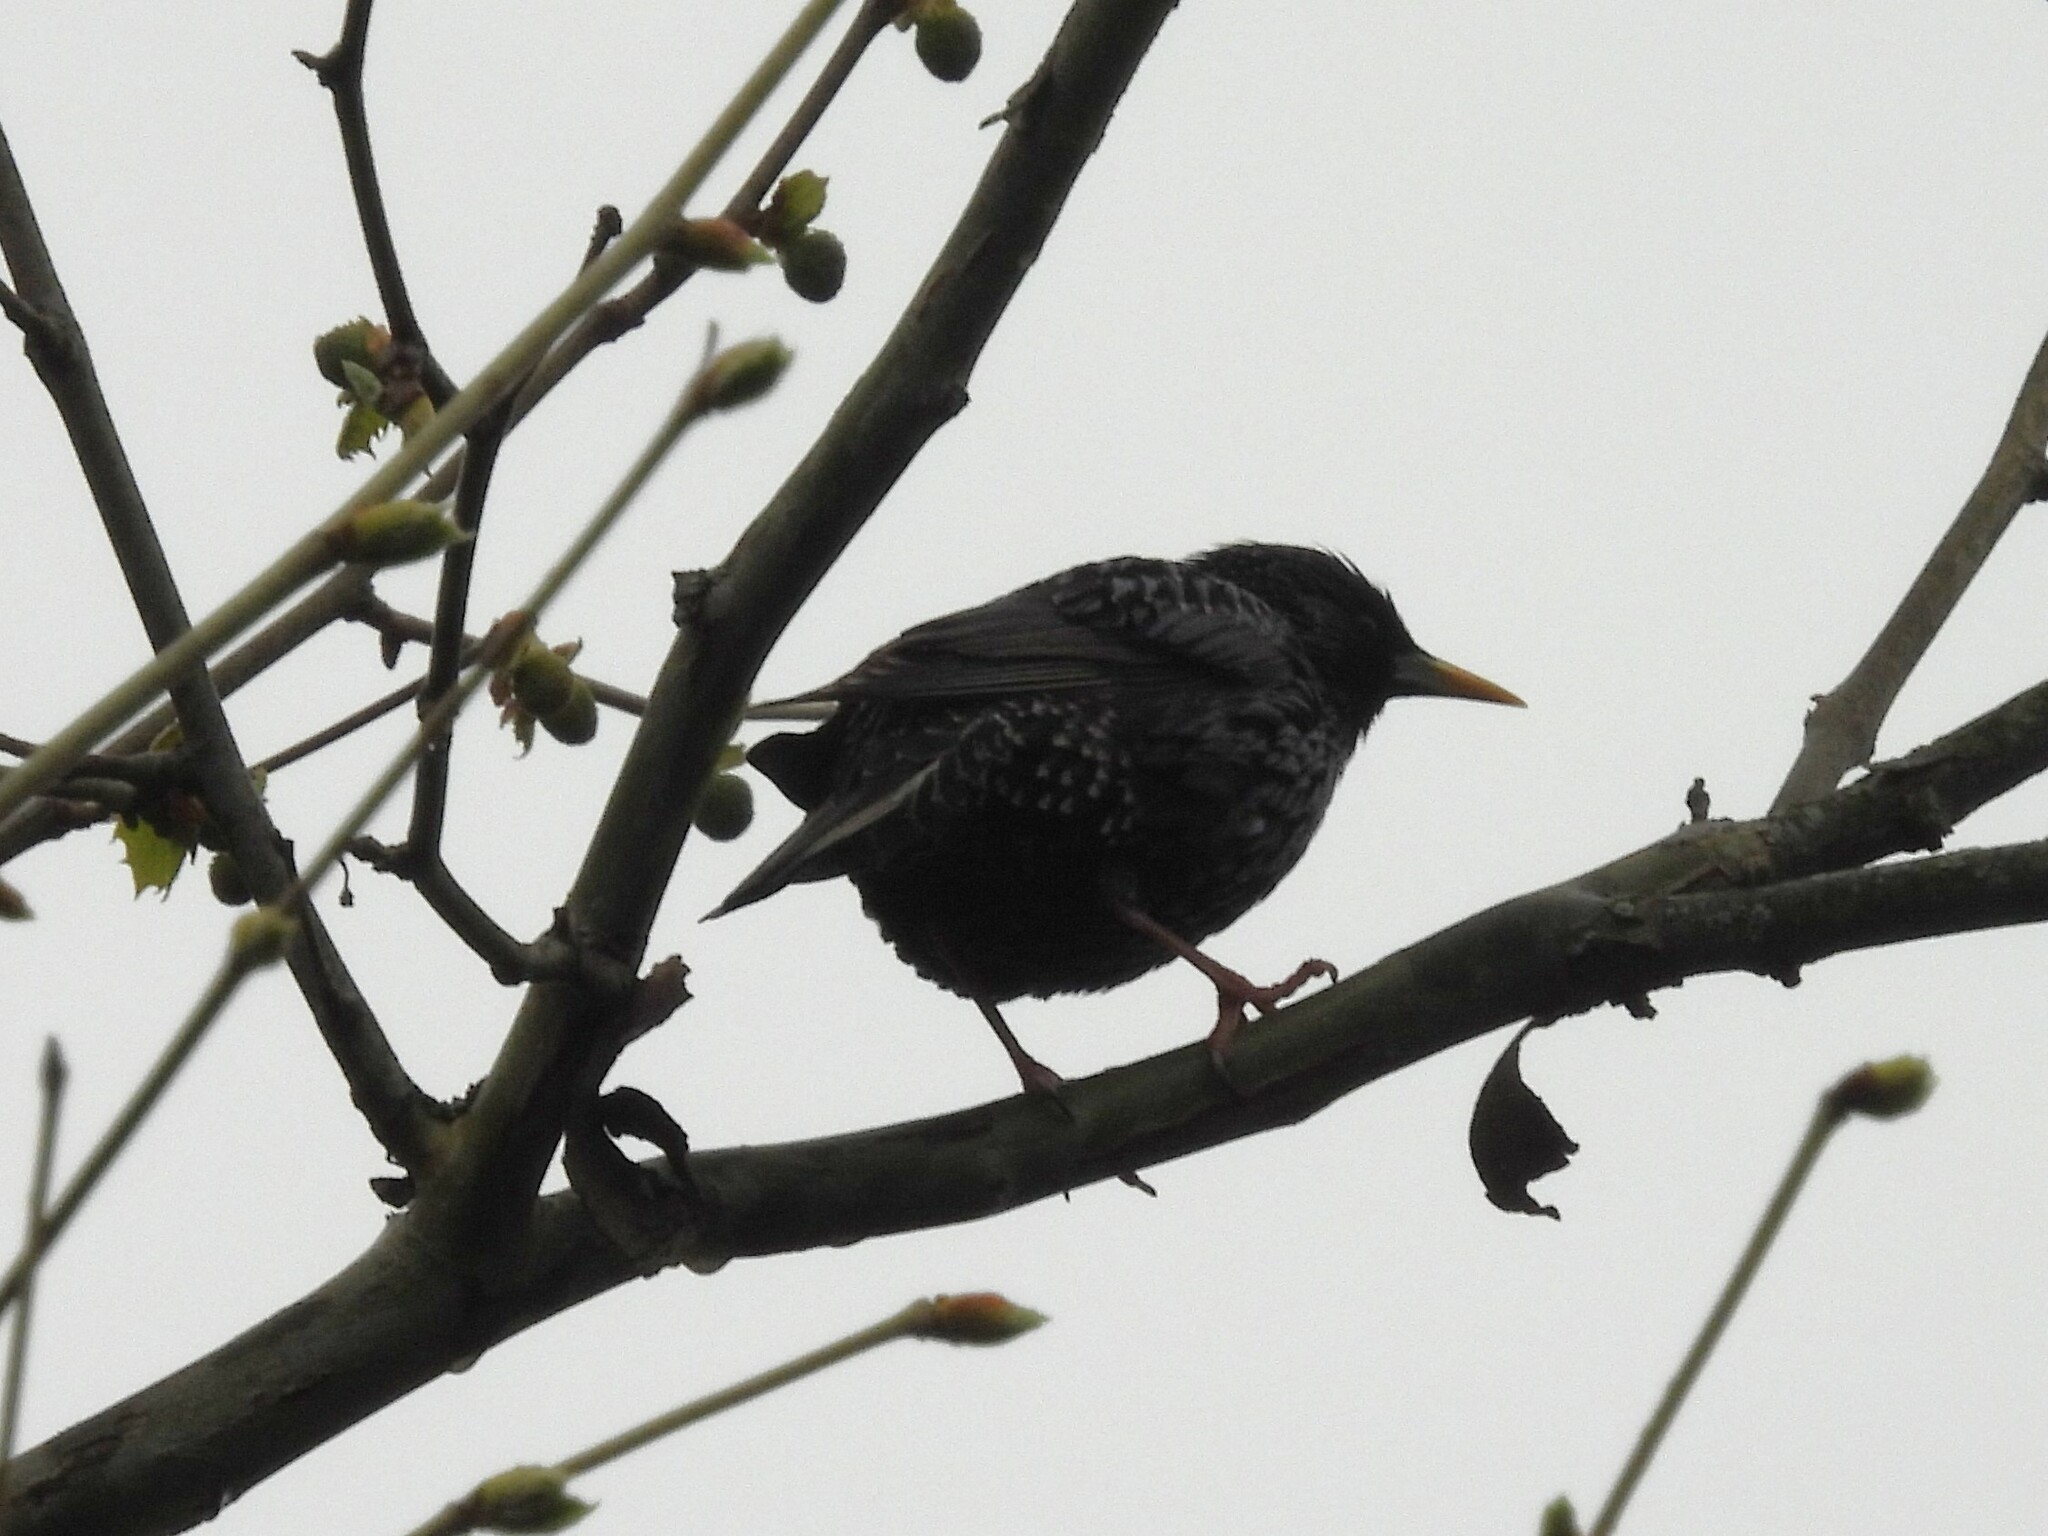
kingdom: Animalia
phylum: Chordata
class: Aves
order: Passeriformes
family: Sturnidae
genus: Sturnus
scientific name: Sturnus vulgaris
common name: Common starling
